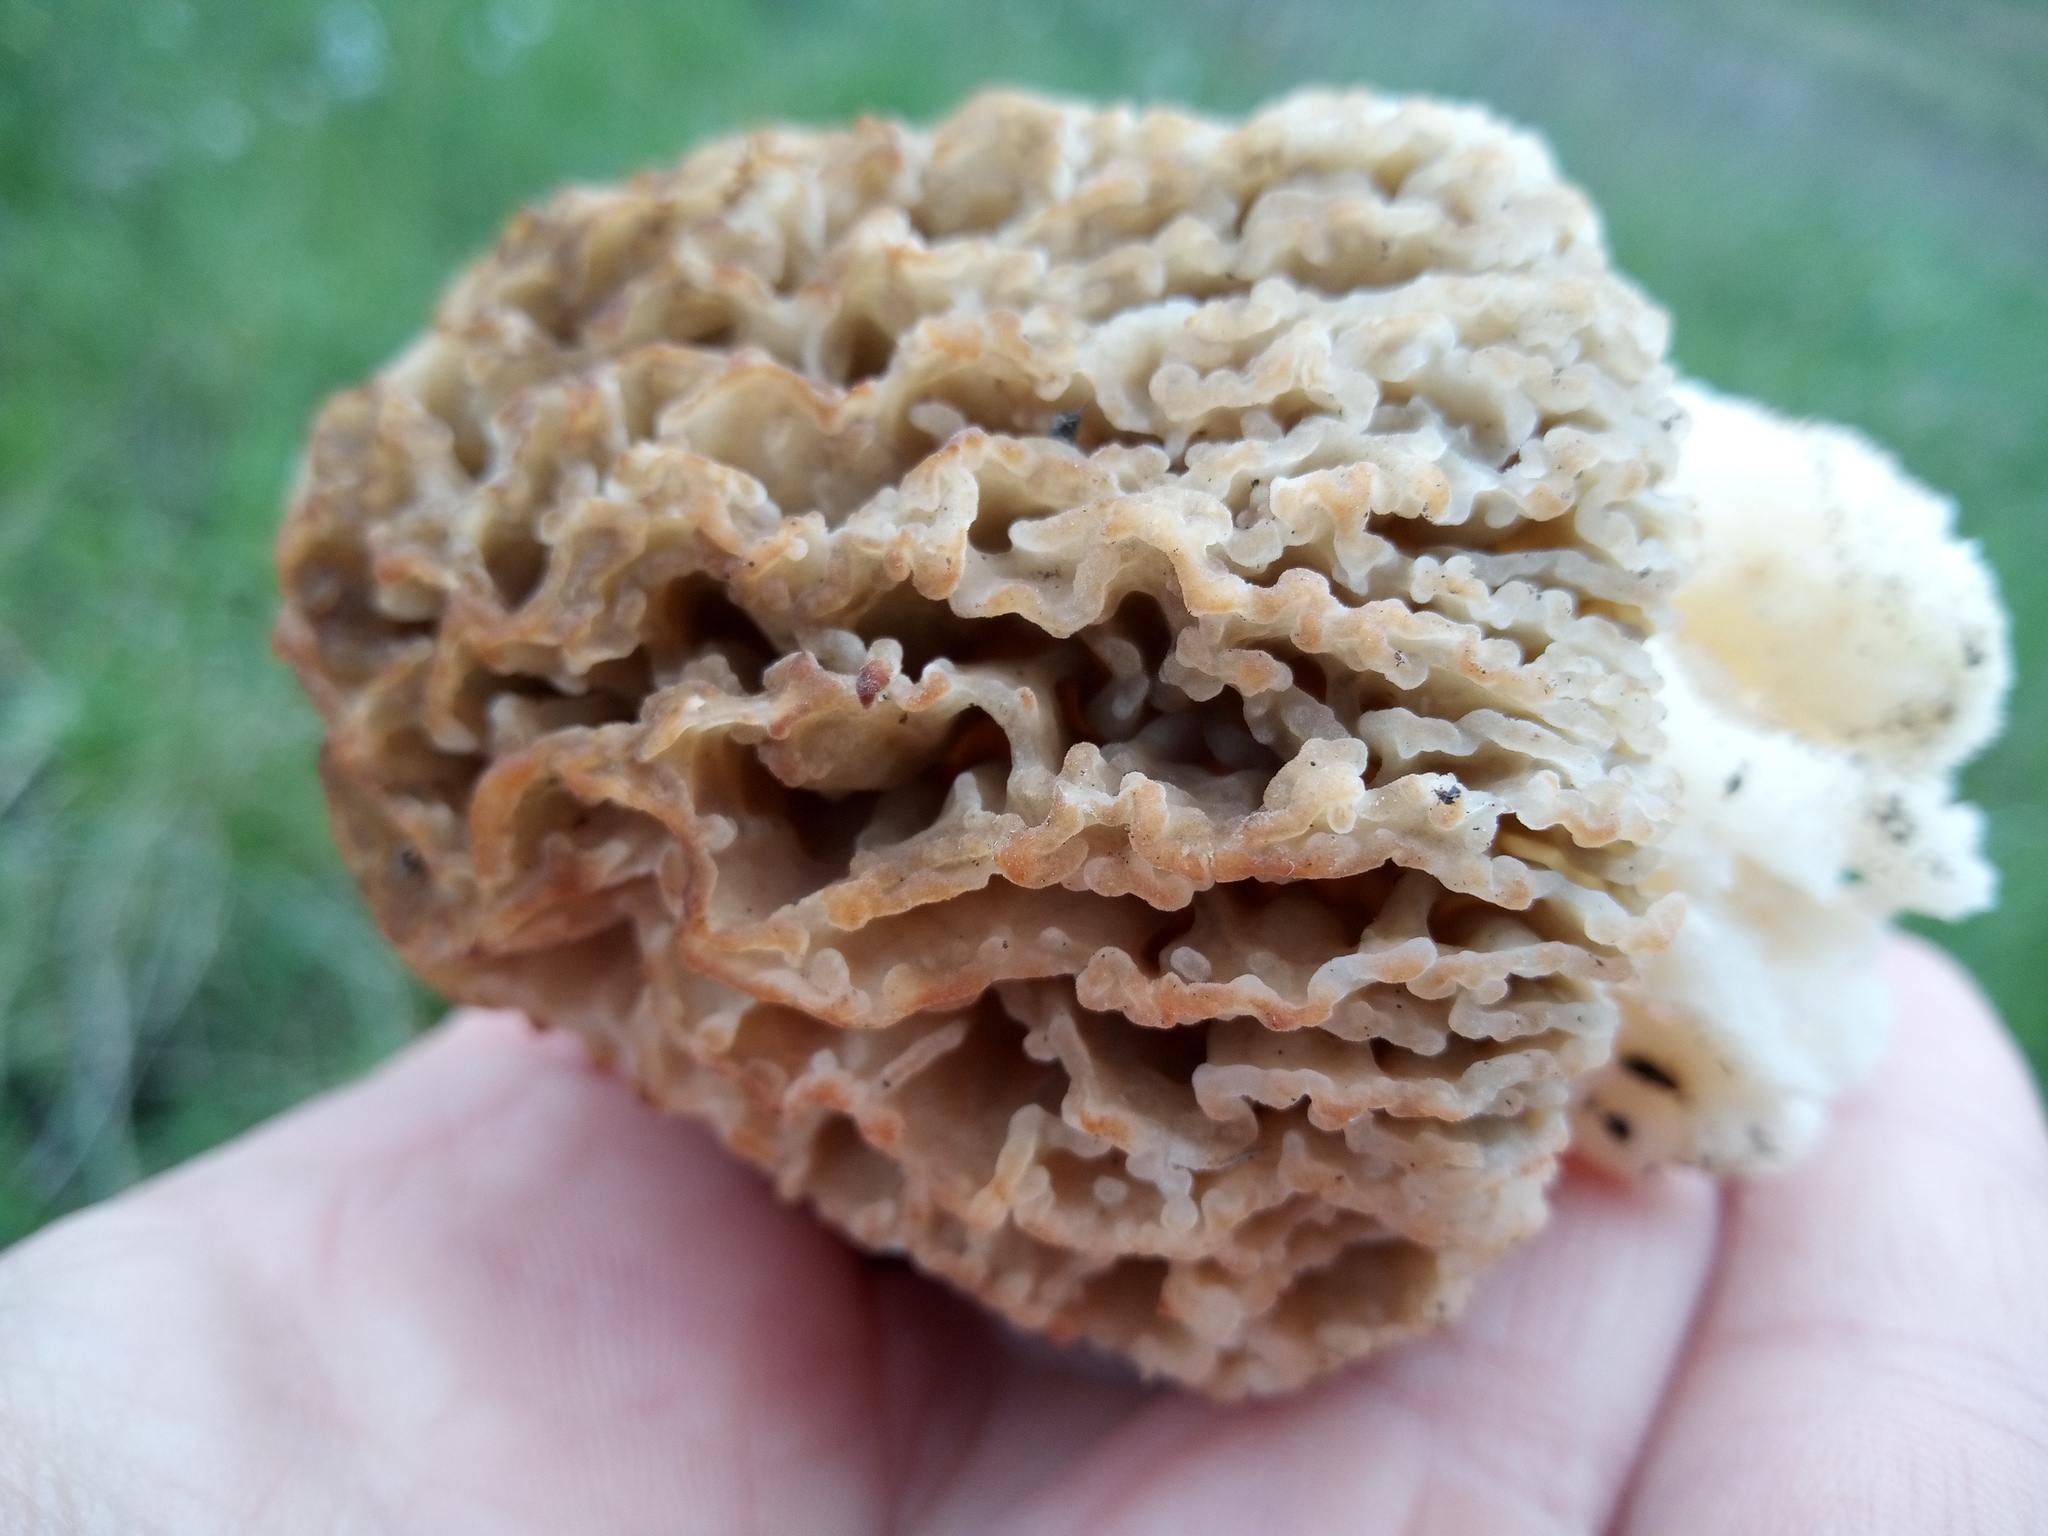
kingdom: Fungi
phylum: Ascomycota
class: Pezizomycetes
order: Pezizales
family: Morchellaceae
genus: Morchella
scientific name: Morchella steppicola
